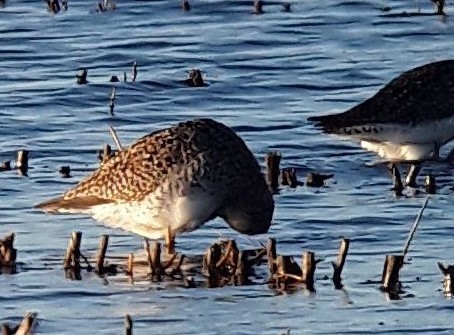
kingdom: Animalia
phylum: Chordata
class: Aves
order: Charadriiformes
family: Scolopacidae
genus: Tringa
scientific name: Tringa flavipes
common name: Lesser yellowlegs
